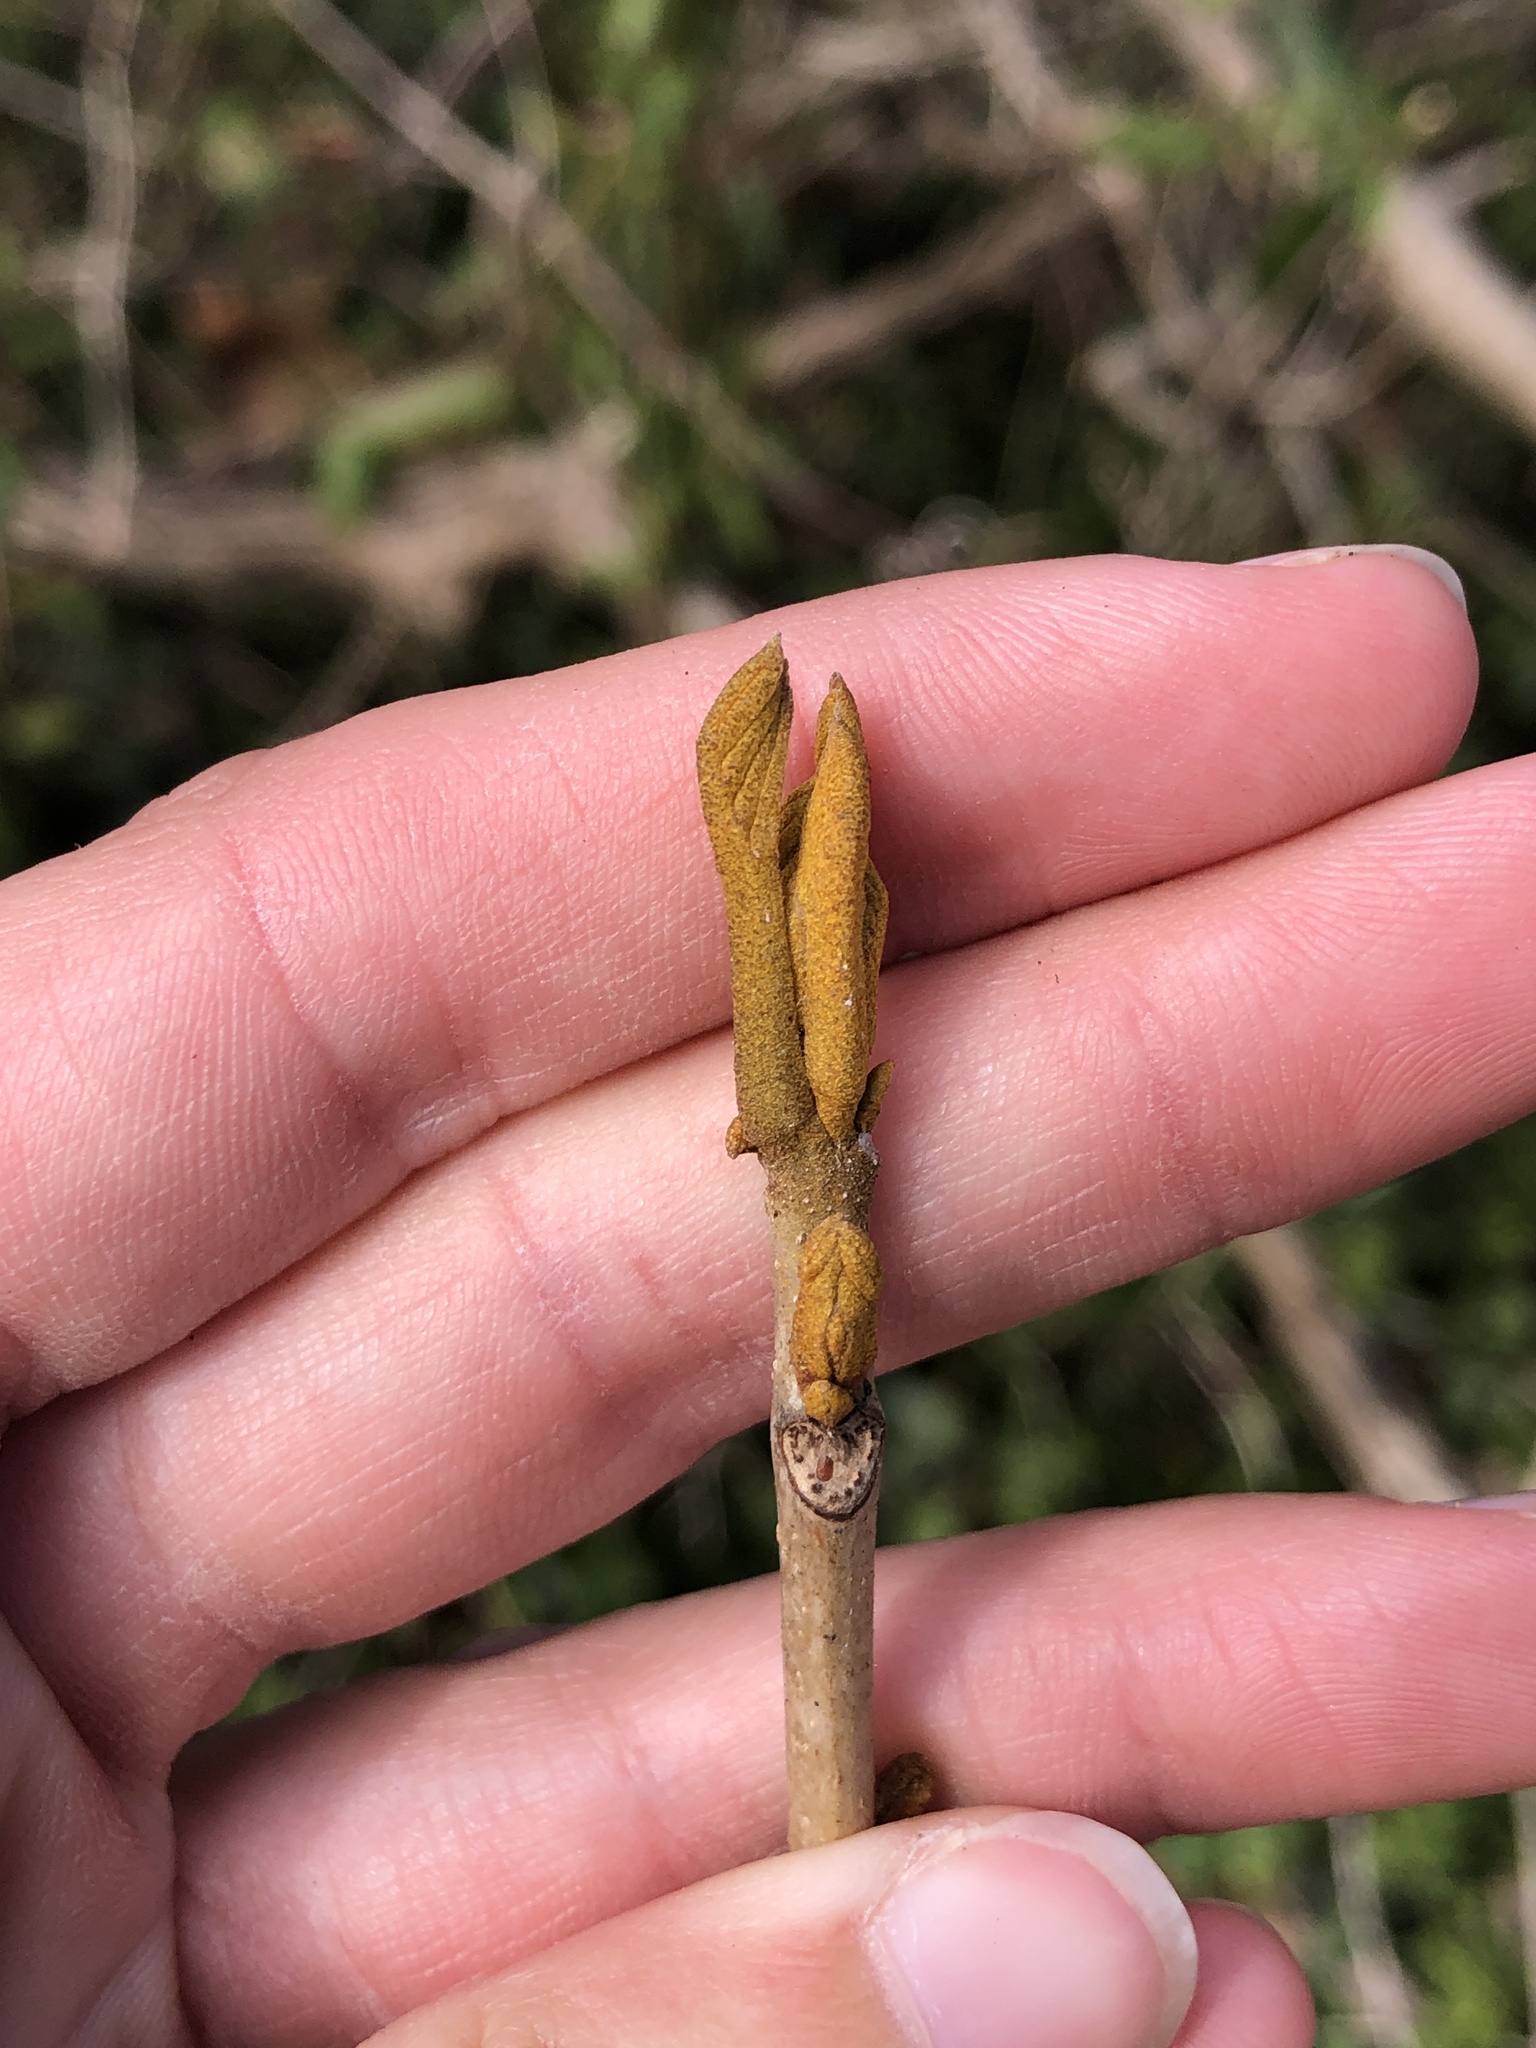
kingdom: Plantae
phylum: Tracheophyta
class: Magnoliopsida
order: Fagales
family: Juglandaceae
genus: Carya
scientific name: Carya cordiformis
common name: Bitternut hickory
